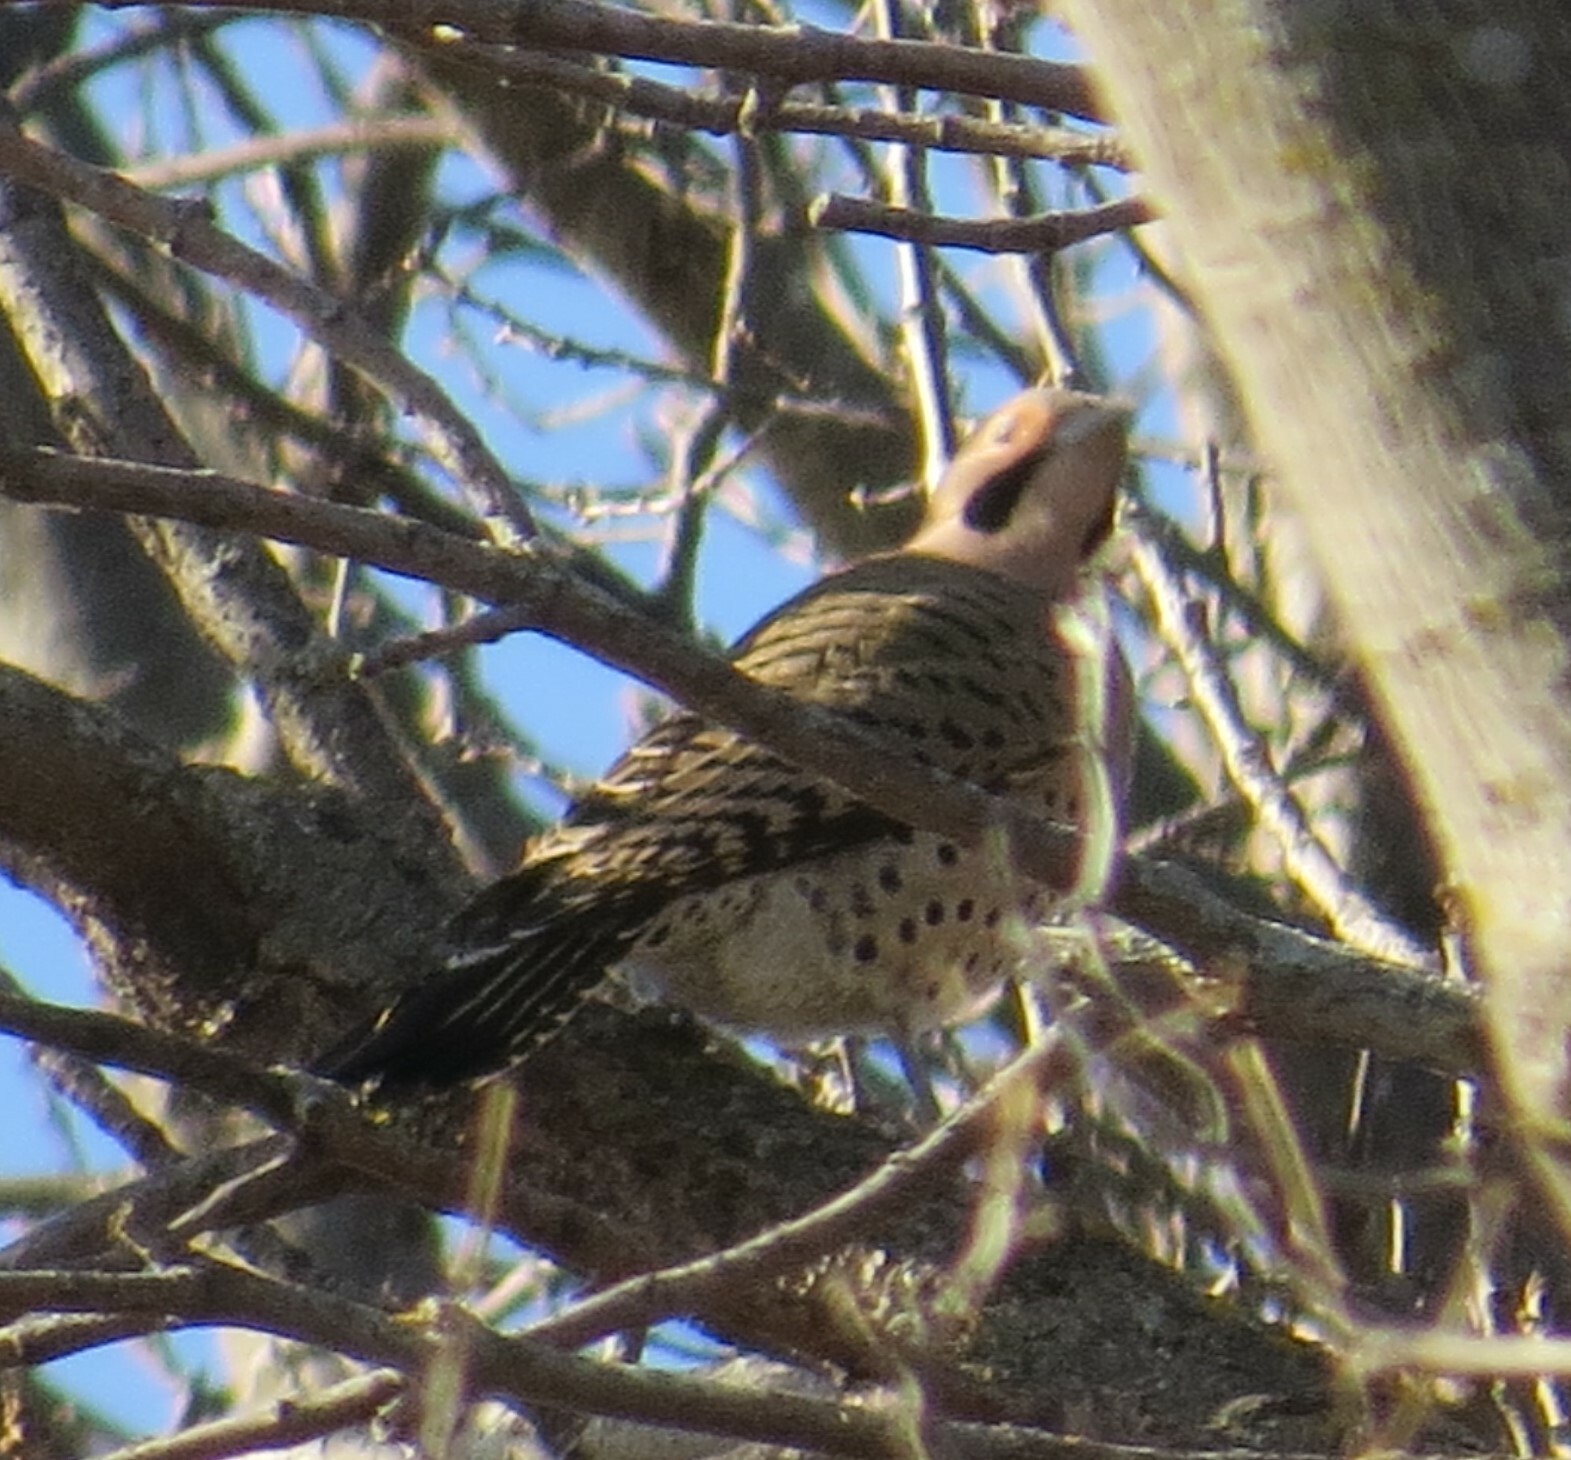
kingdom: Animalia
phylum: Chordata
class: Aves
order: Piciformes
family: Picidae
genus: Colaptes
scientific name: Colaptes auratus
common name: Northern flicker
